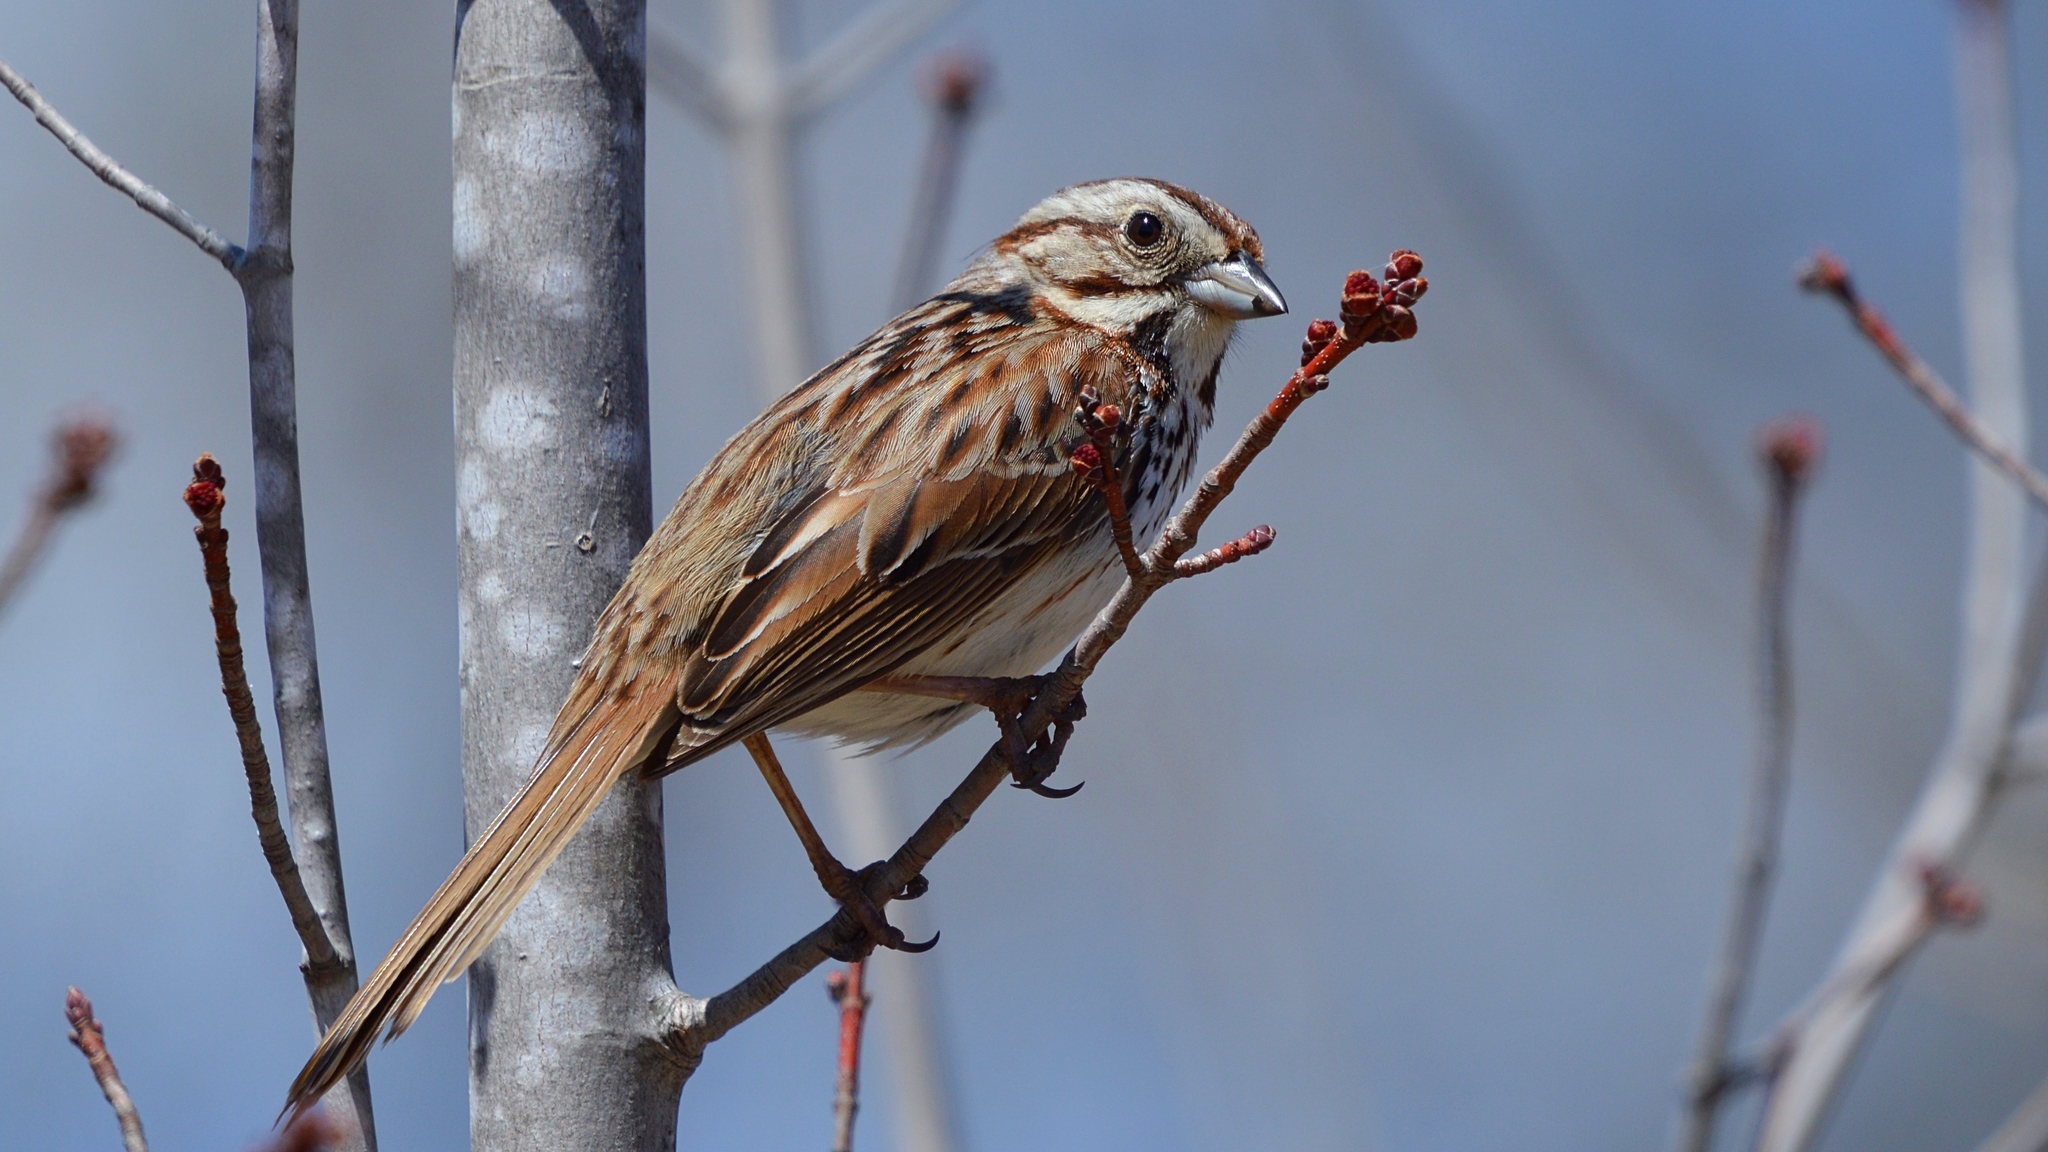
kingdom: Animalia
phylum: Chordata
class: Aves
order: Passeriformes
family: Passerellidae
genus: Melospiza
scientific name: Melospiza melodia
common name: Song sparrow
